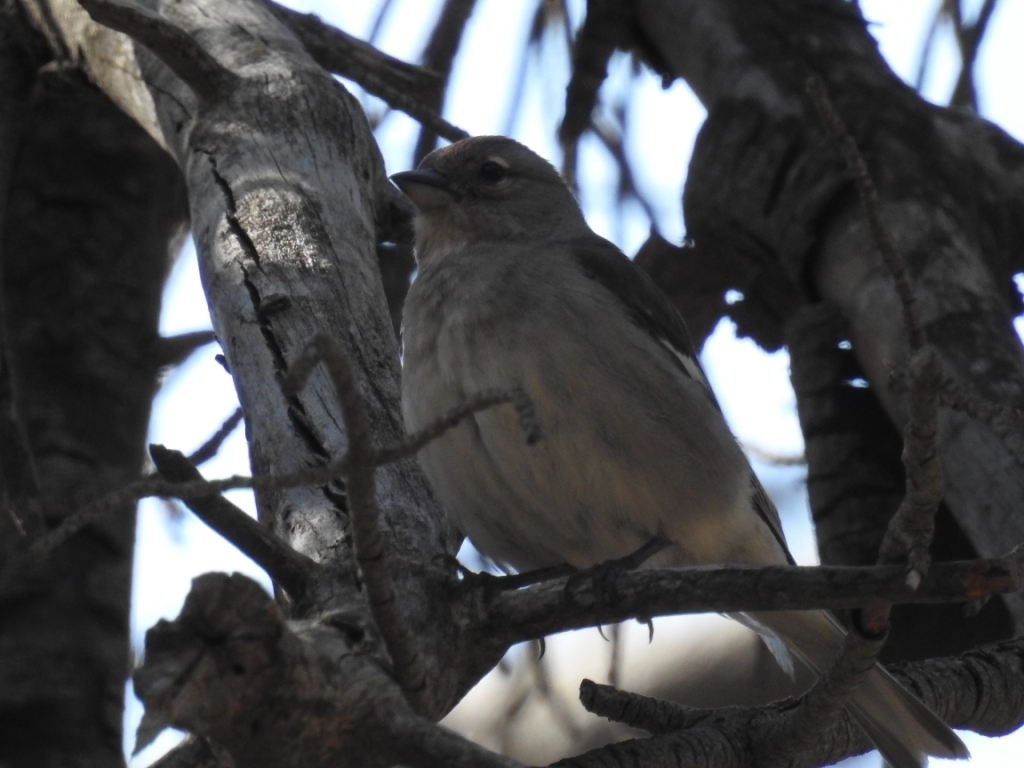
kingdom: Animalia
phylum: Chordata
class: Aves
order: Passeriformes
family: Fringillidae
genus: Fringilla
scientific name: Fringilla spodiogenys
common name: African chaffinch
